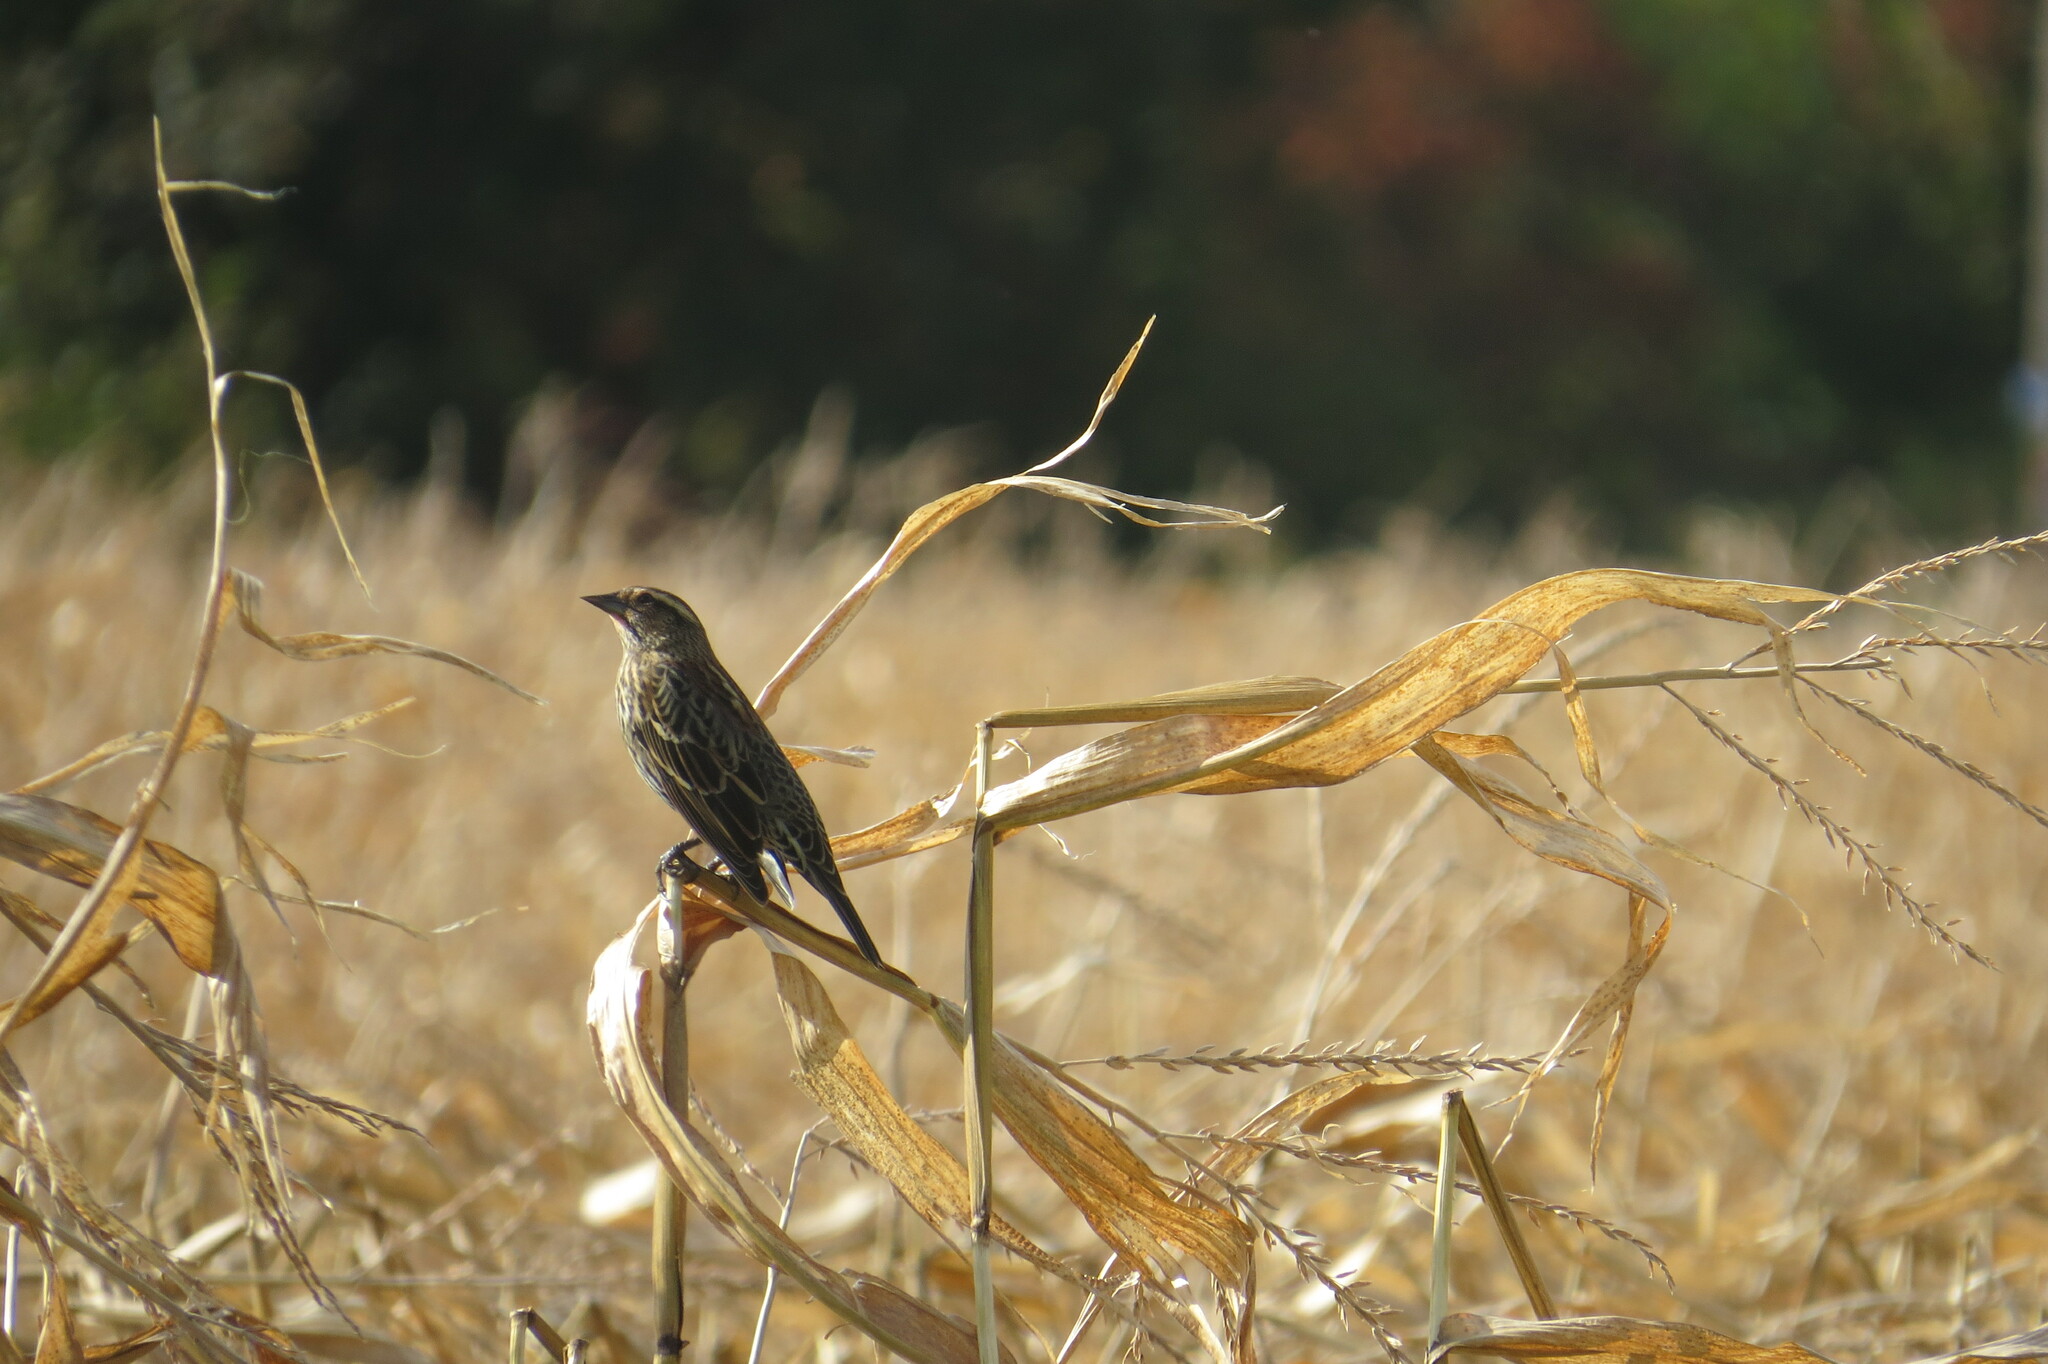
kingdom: Animalia
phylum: Chordata
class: Aves
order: Passeriformes
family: Icteridae
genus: Agelaius
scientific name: Agelaius phoeniceus
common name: Red-winged blackbird
